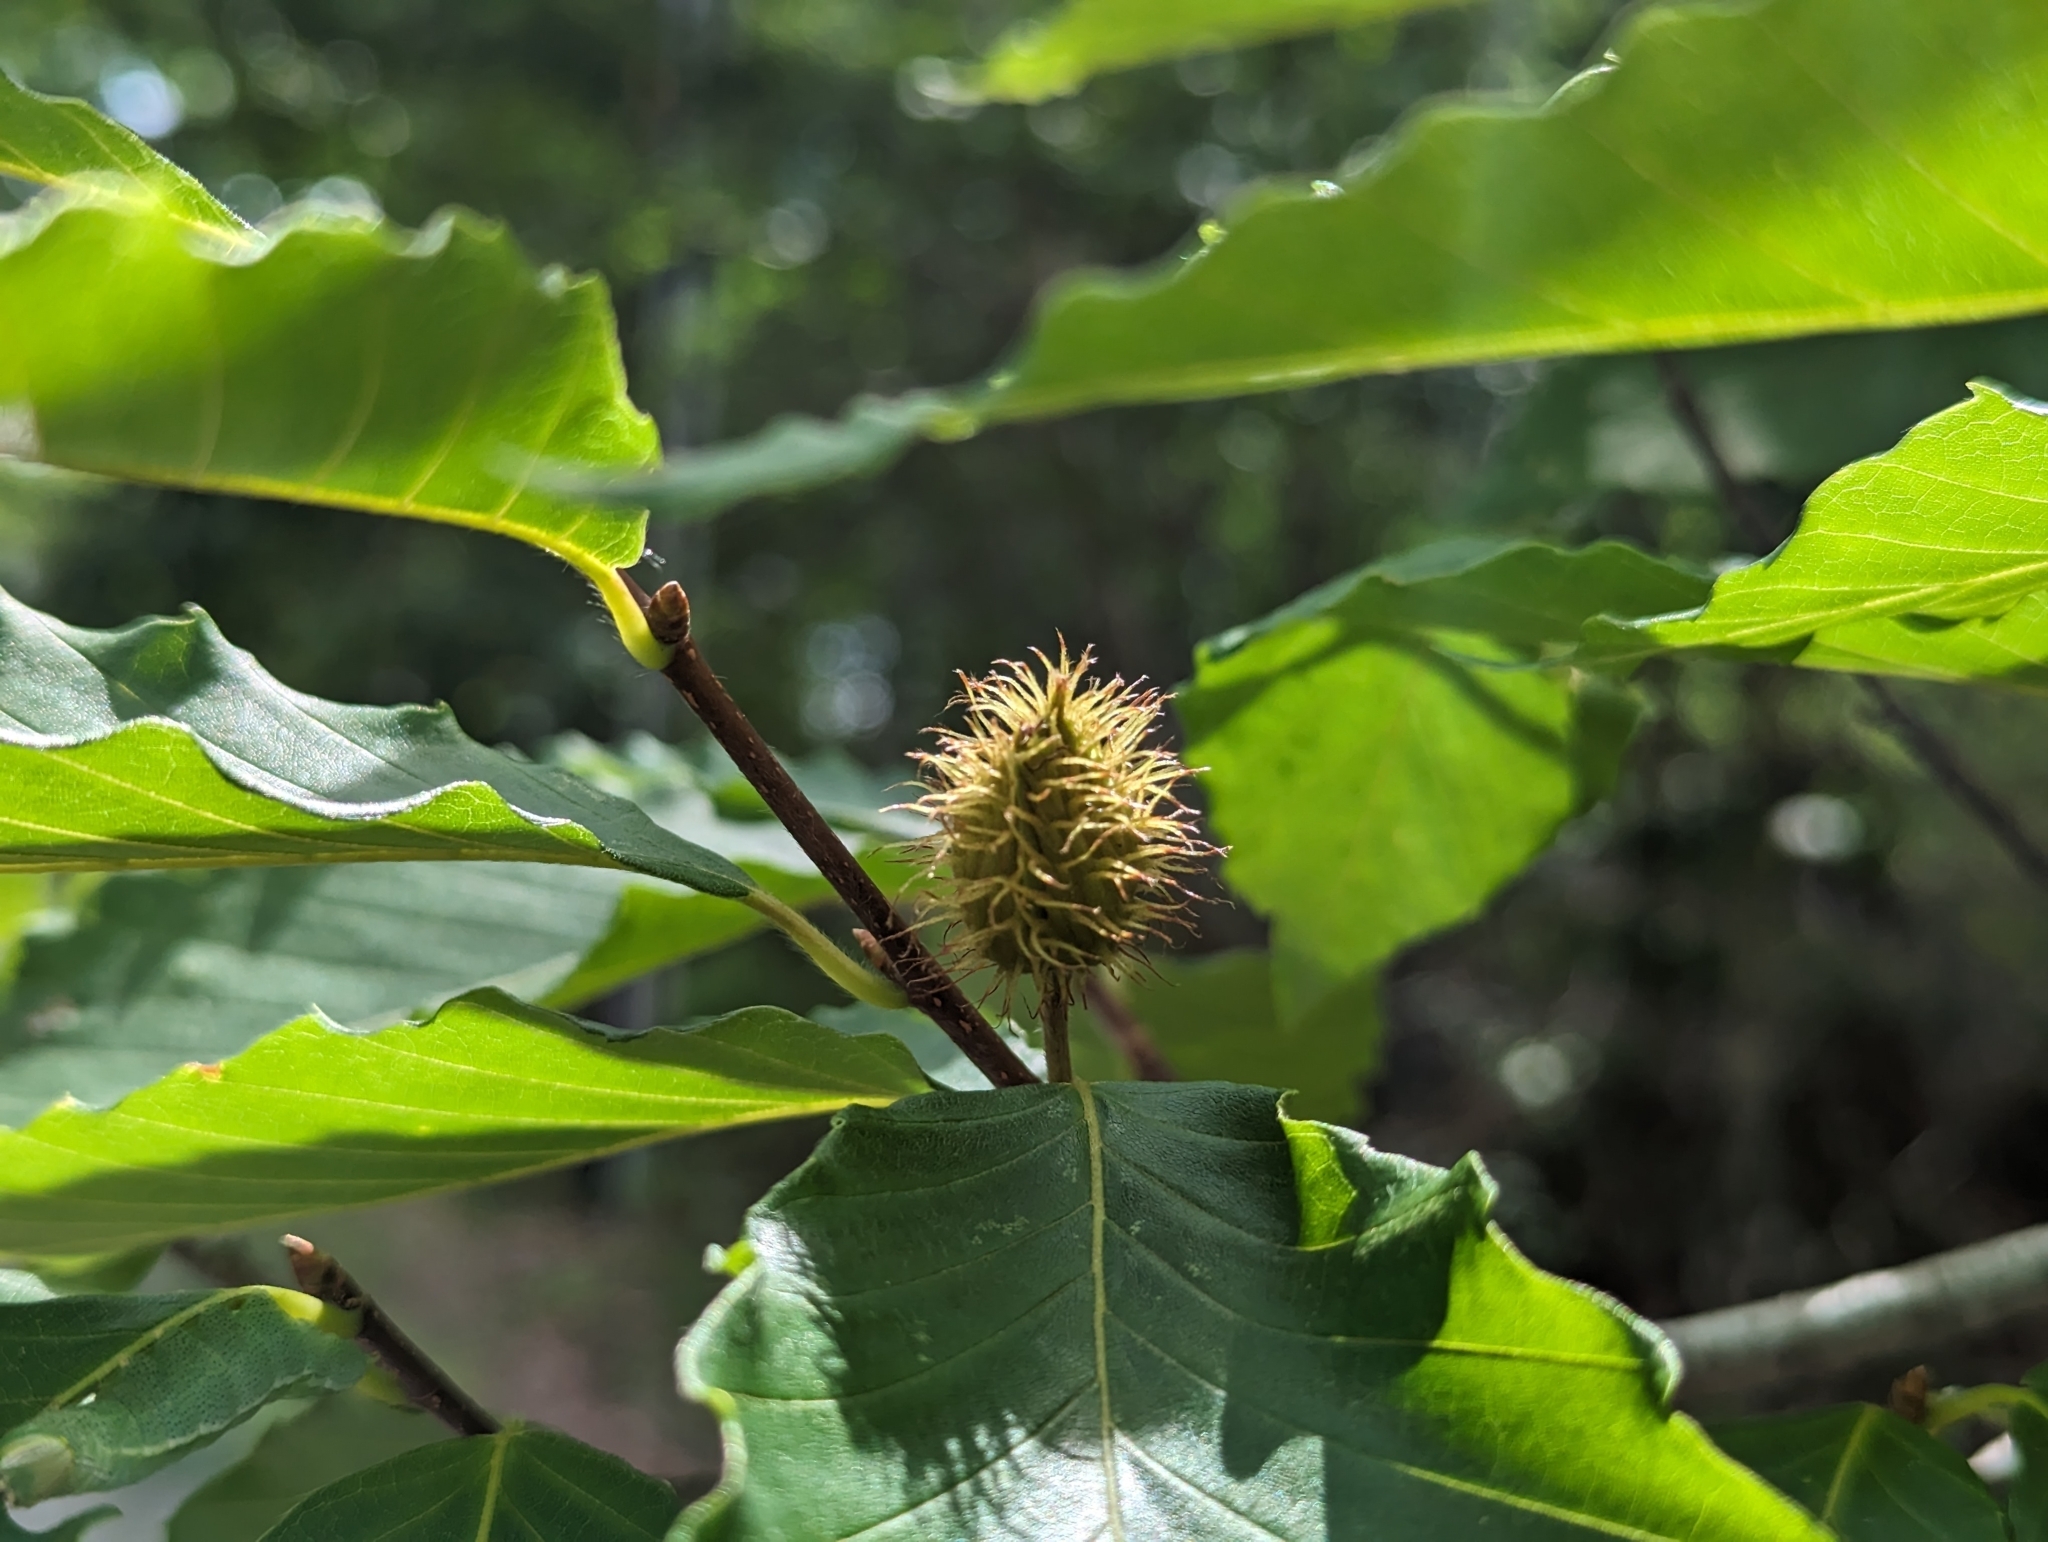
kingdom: Plantae
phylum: Tracheophyta
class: Magnoliopsida
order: Fagales
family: Fagaceae
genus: Fagus
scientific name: Fagus grandifolia
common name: American beech
